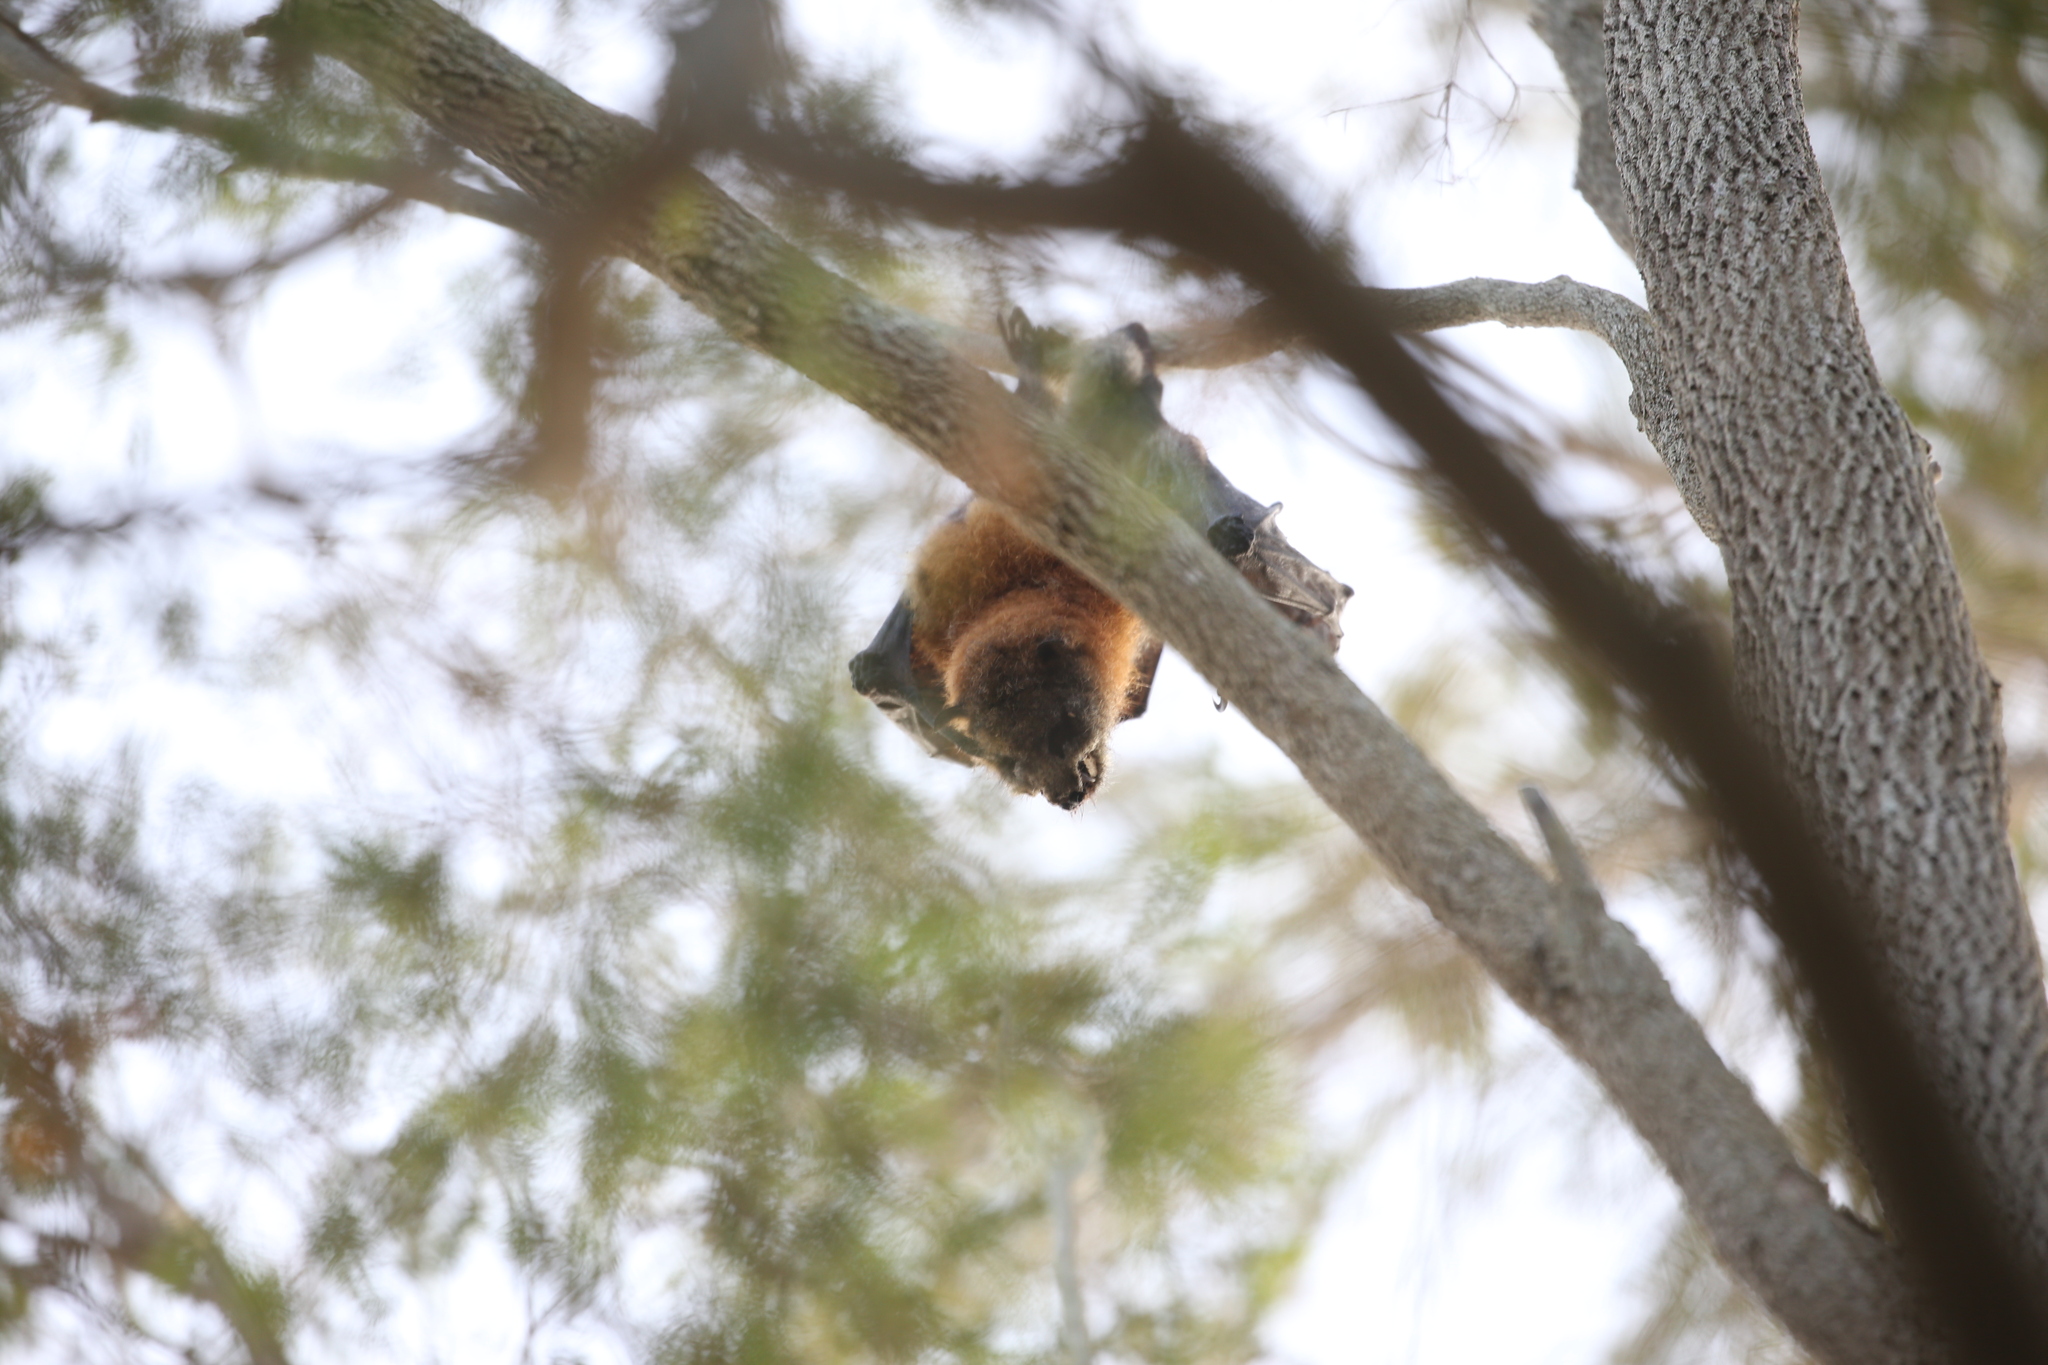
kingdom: Animalia
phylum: Chordata
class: Mammalia
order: Chiroptera
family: Pteropodidae
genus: Pteropus
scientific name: Pteropus poliocephalus
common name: Gray-headed flying fox
